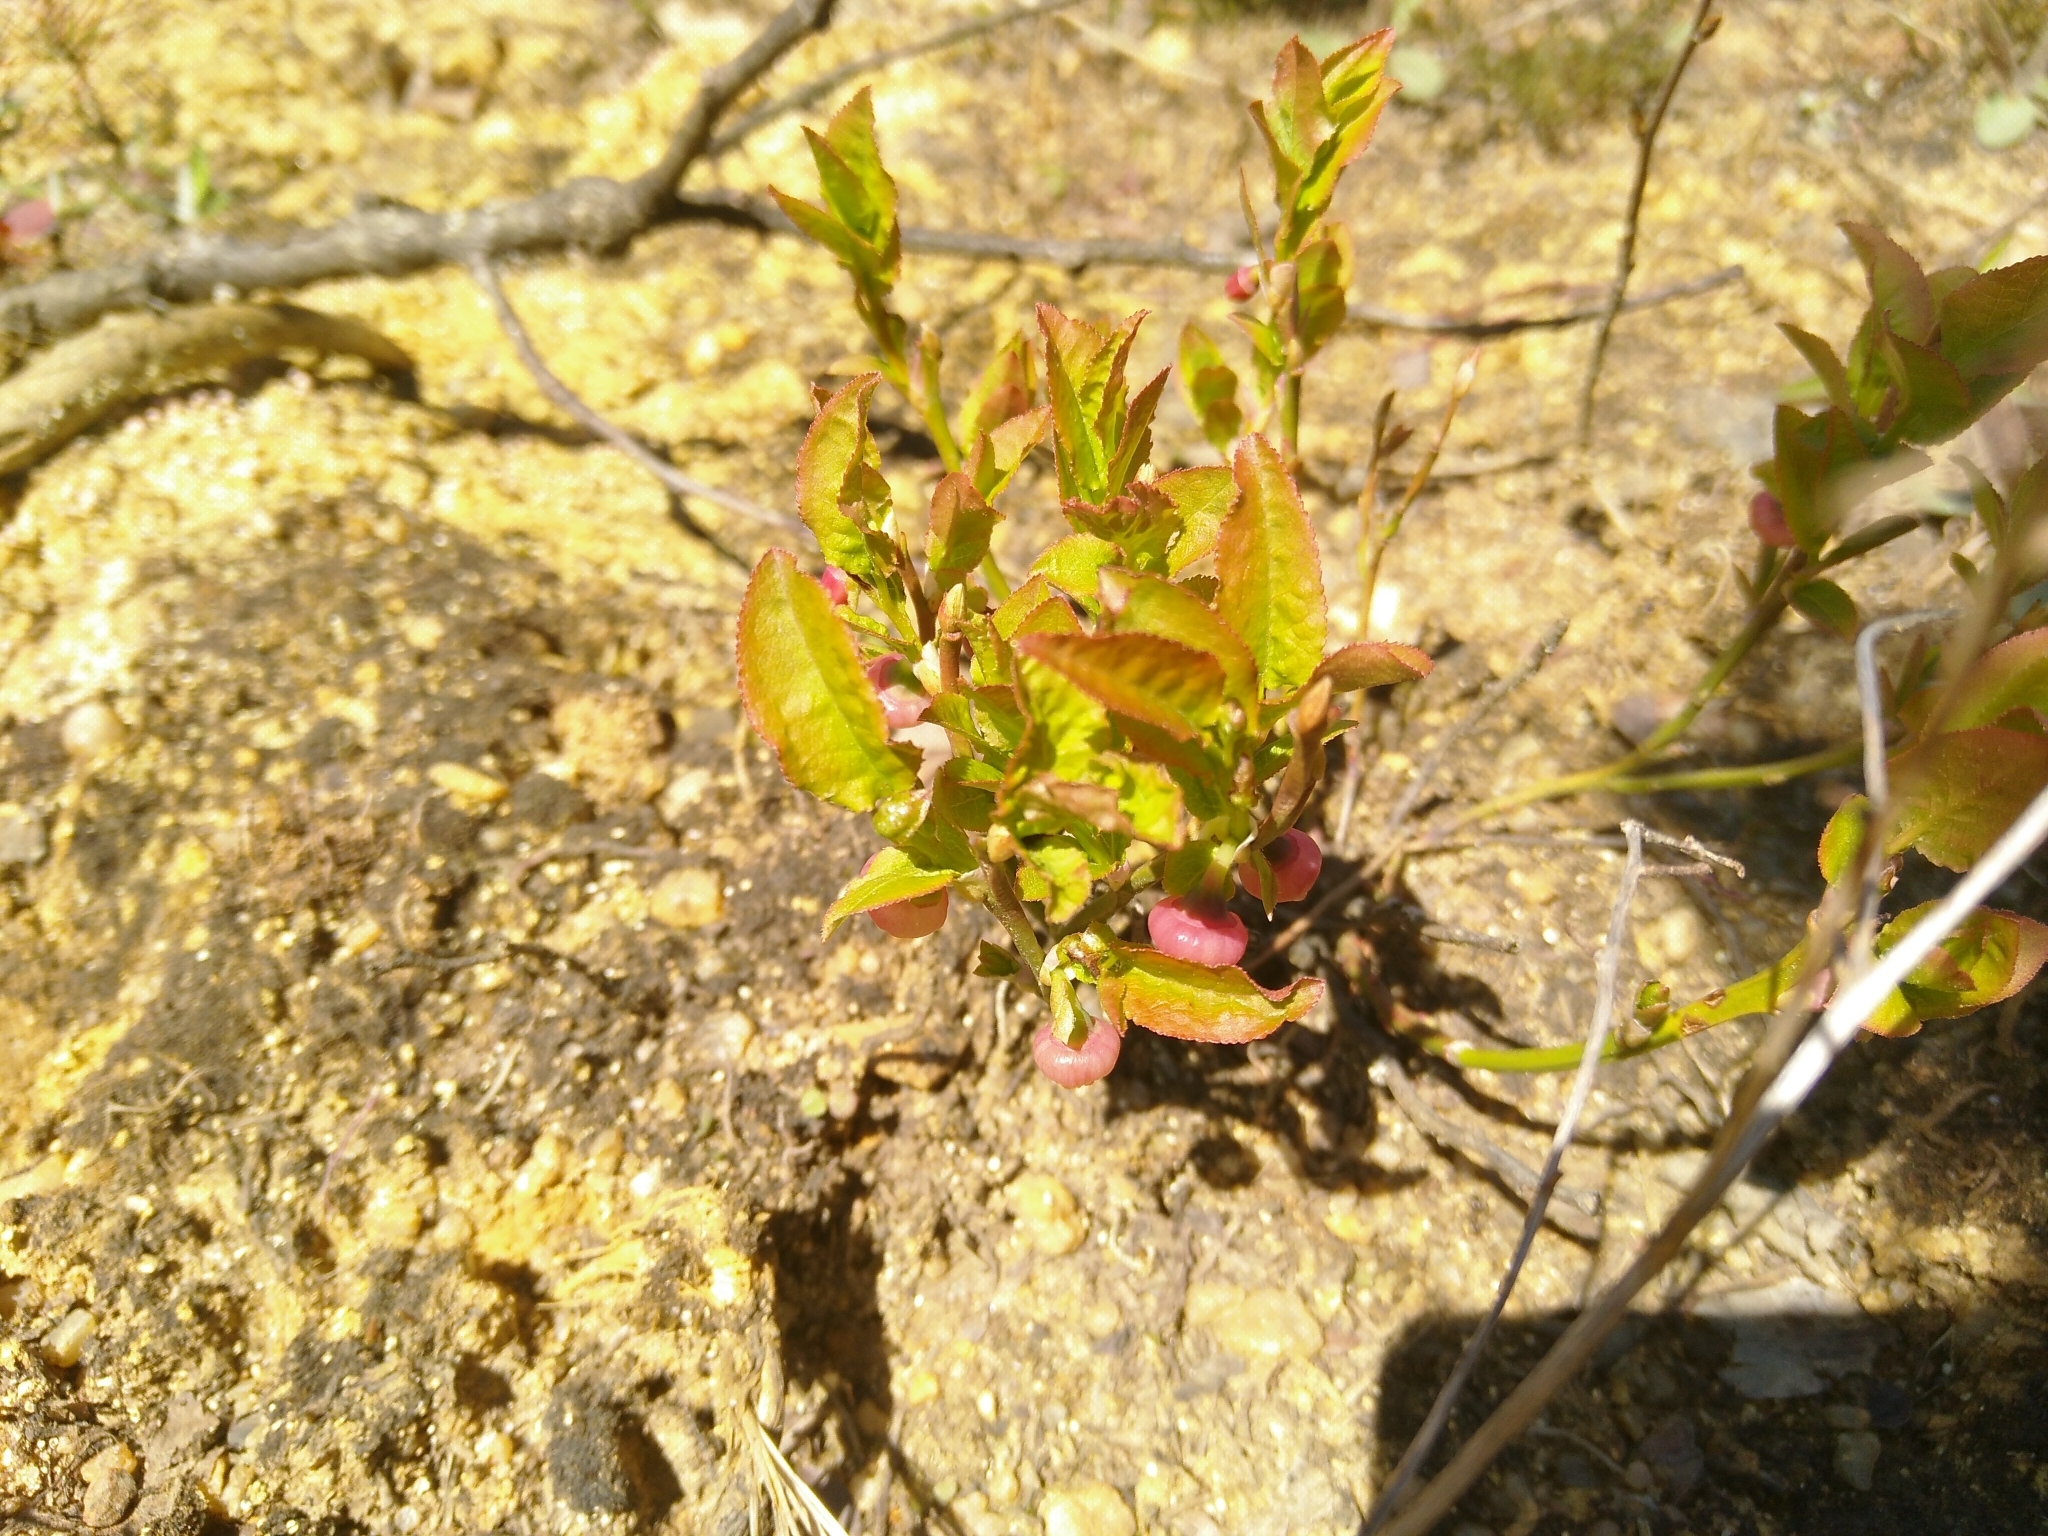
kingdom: Plantae
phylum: Tracheophyta
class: Magnoliopsida
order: Ericales
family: Ericaceae
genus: Vaccinium
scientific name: Vaccinium myrtillus
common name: Bilberry
